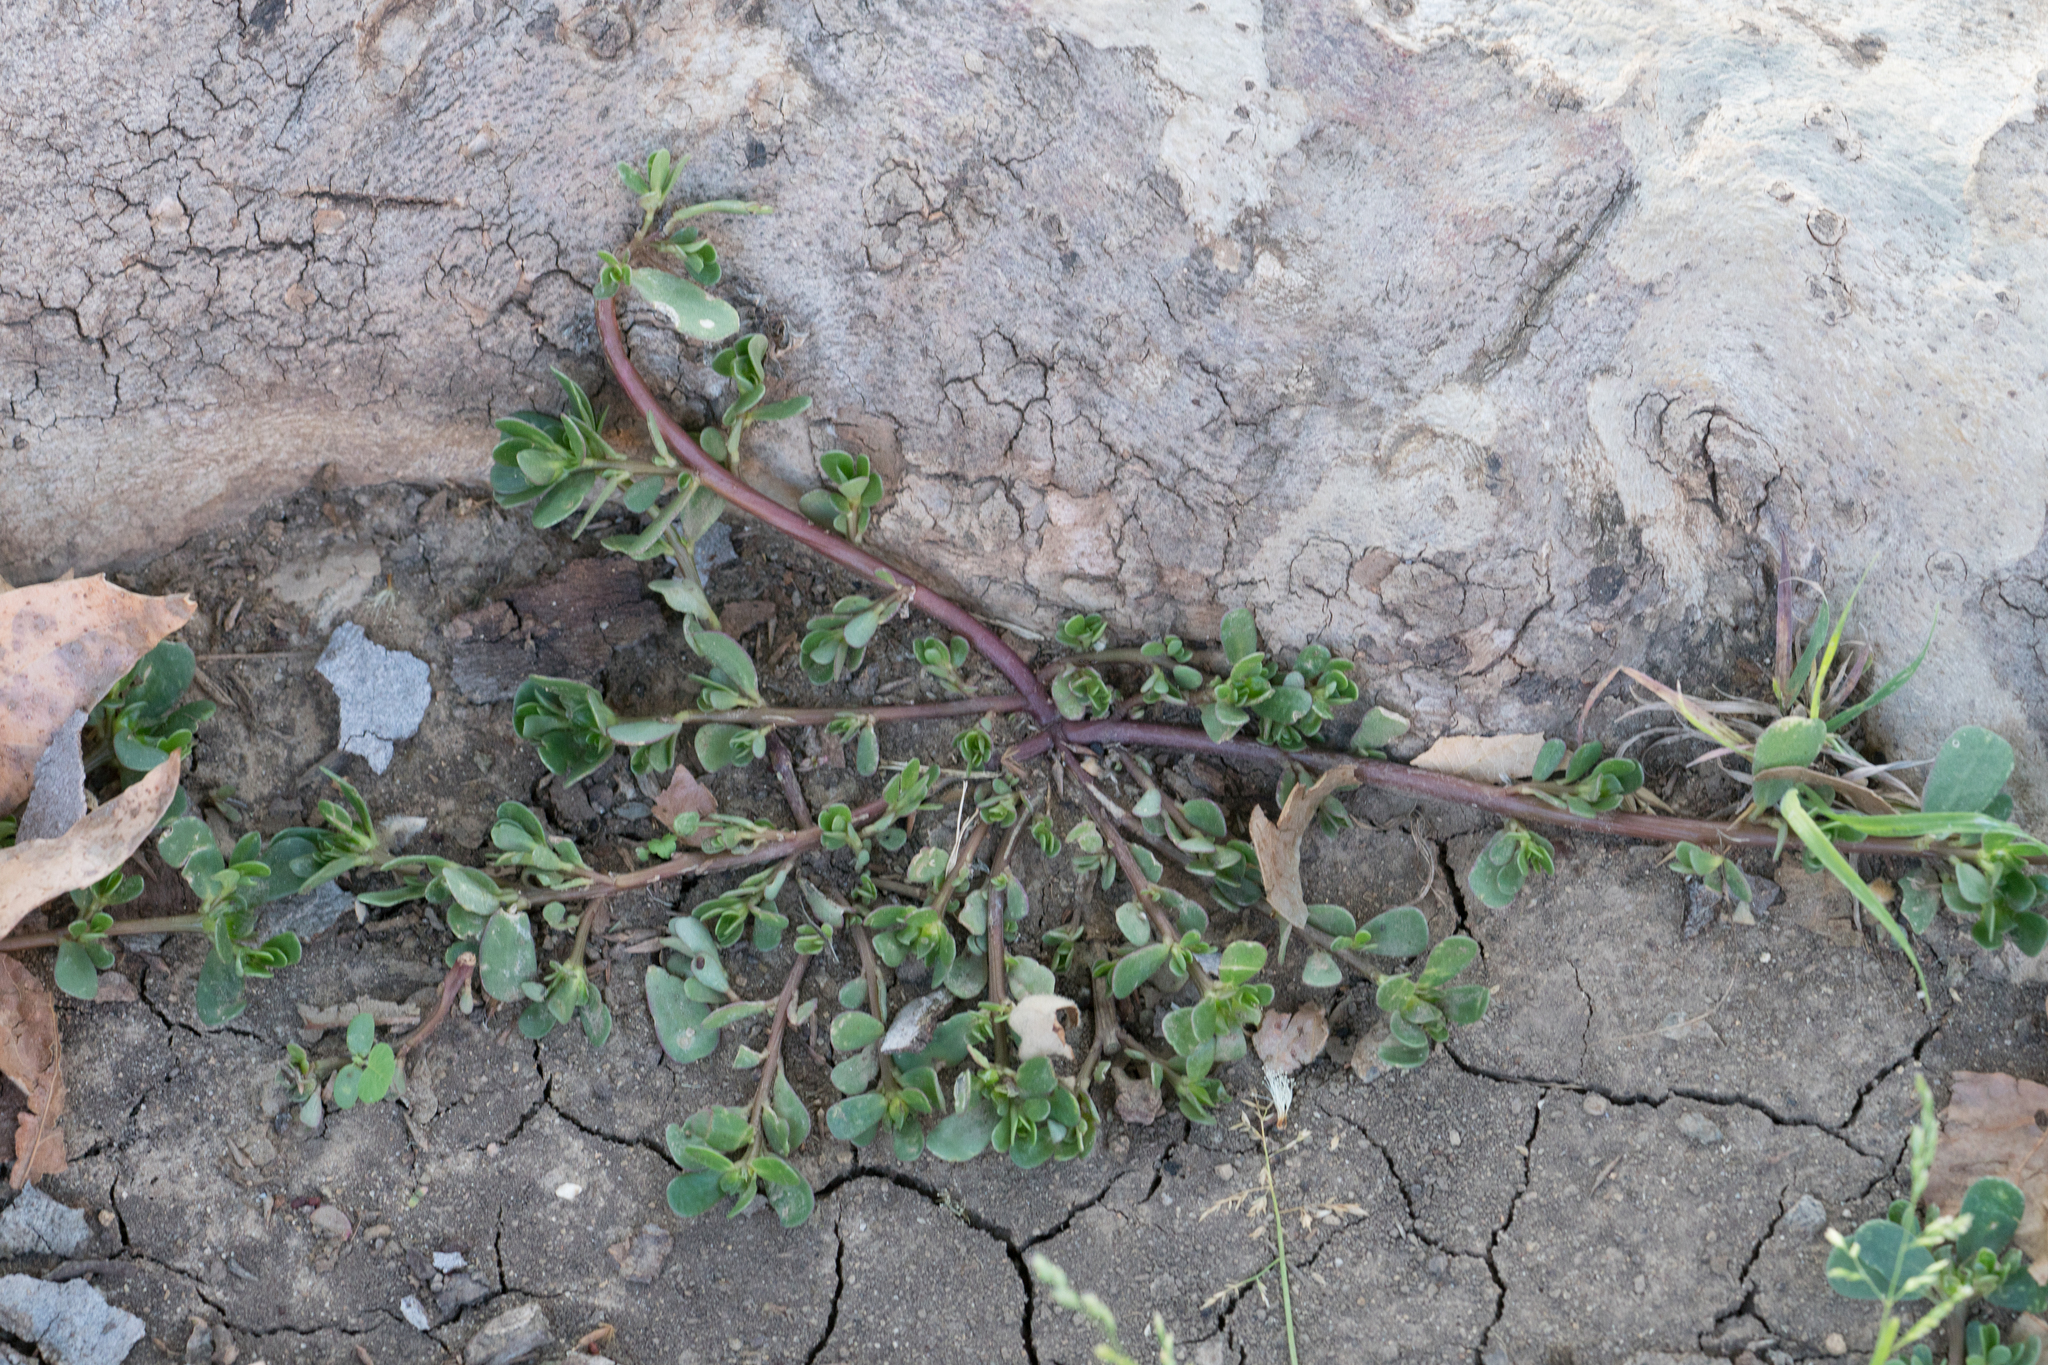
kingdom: Plantae
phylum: Tracheophyta
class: Magnoliopsida
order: Caryophyllales
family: Portulacaceae
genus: Portulaca
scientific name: Portulaca oleracea
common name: Common purslane
